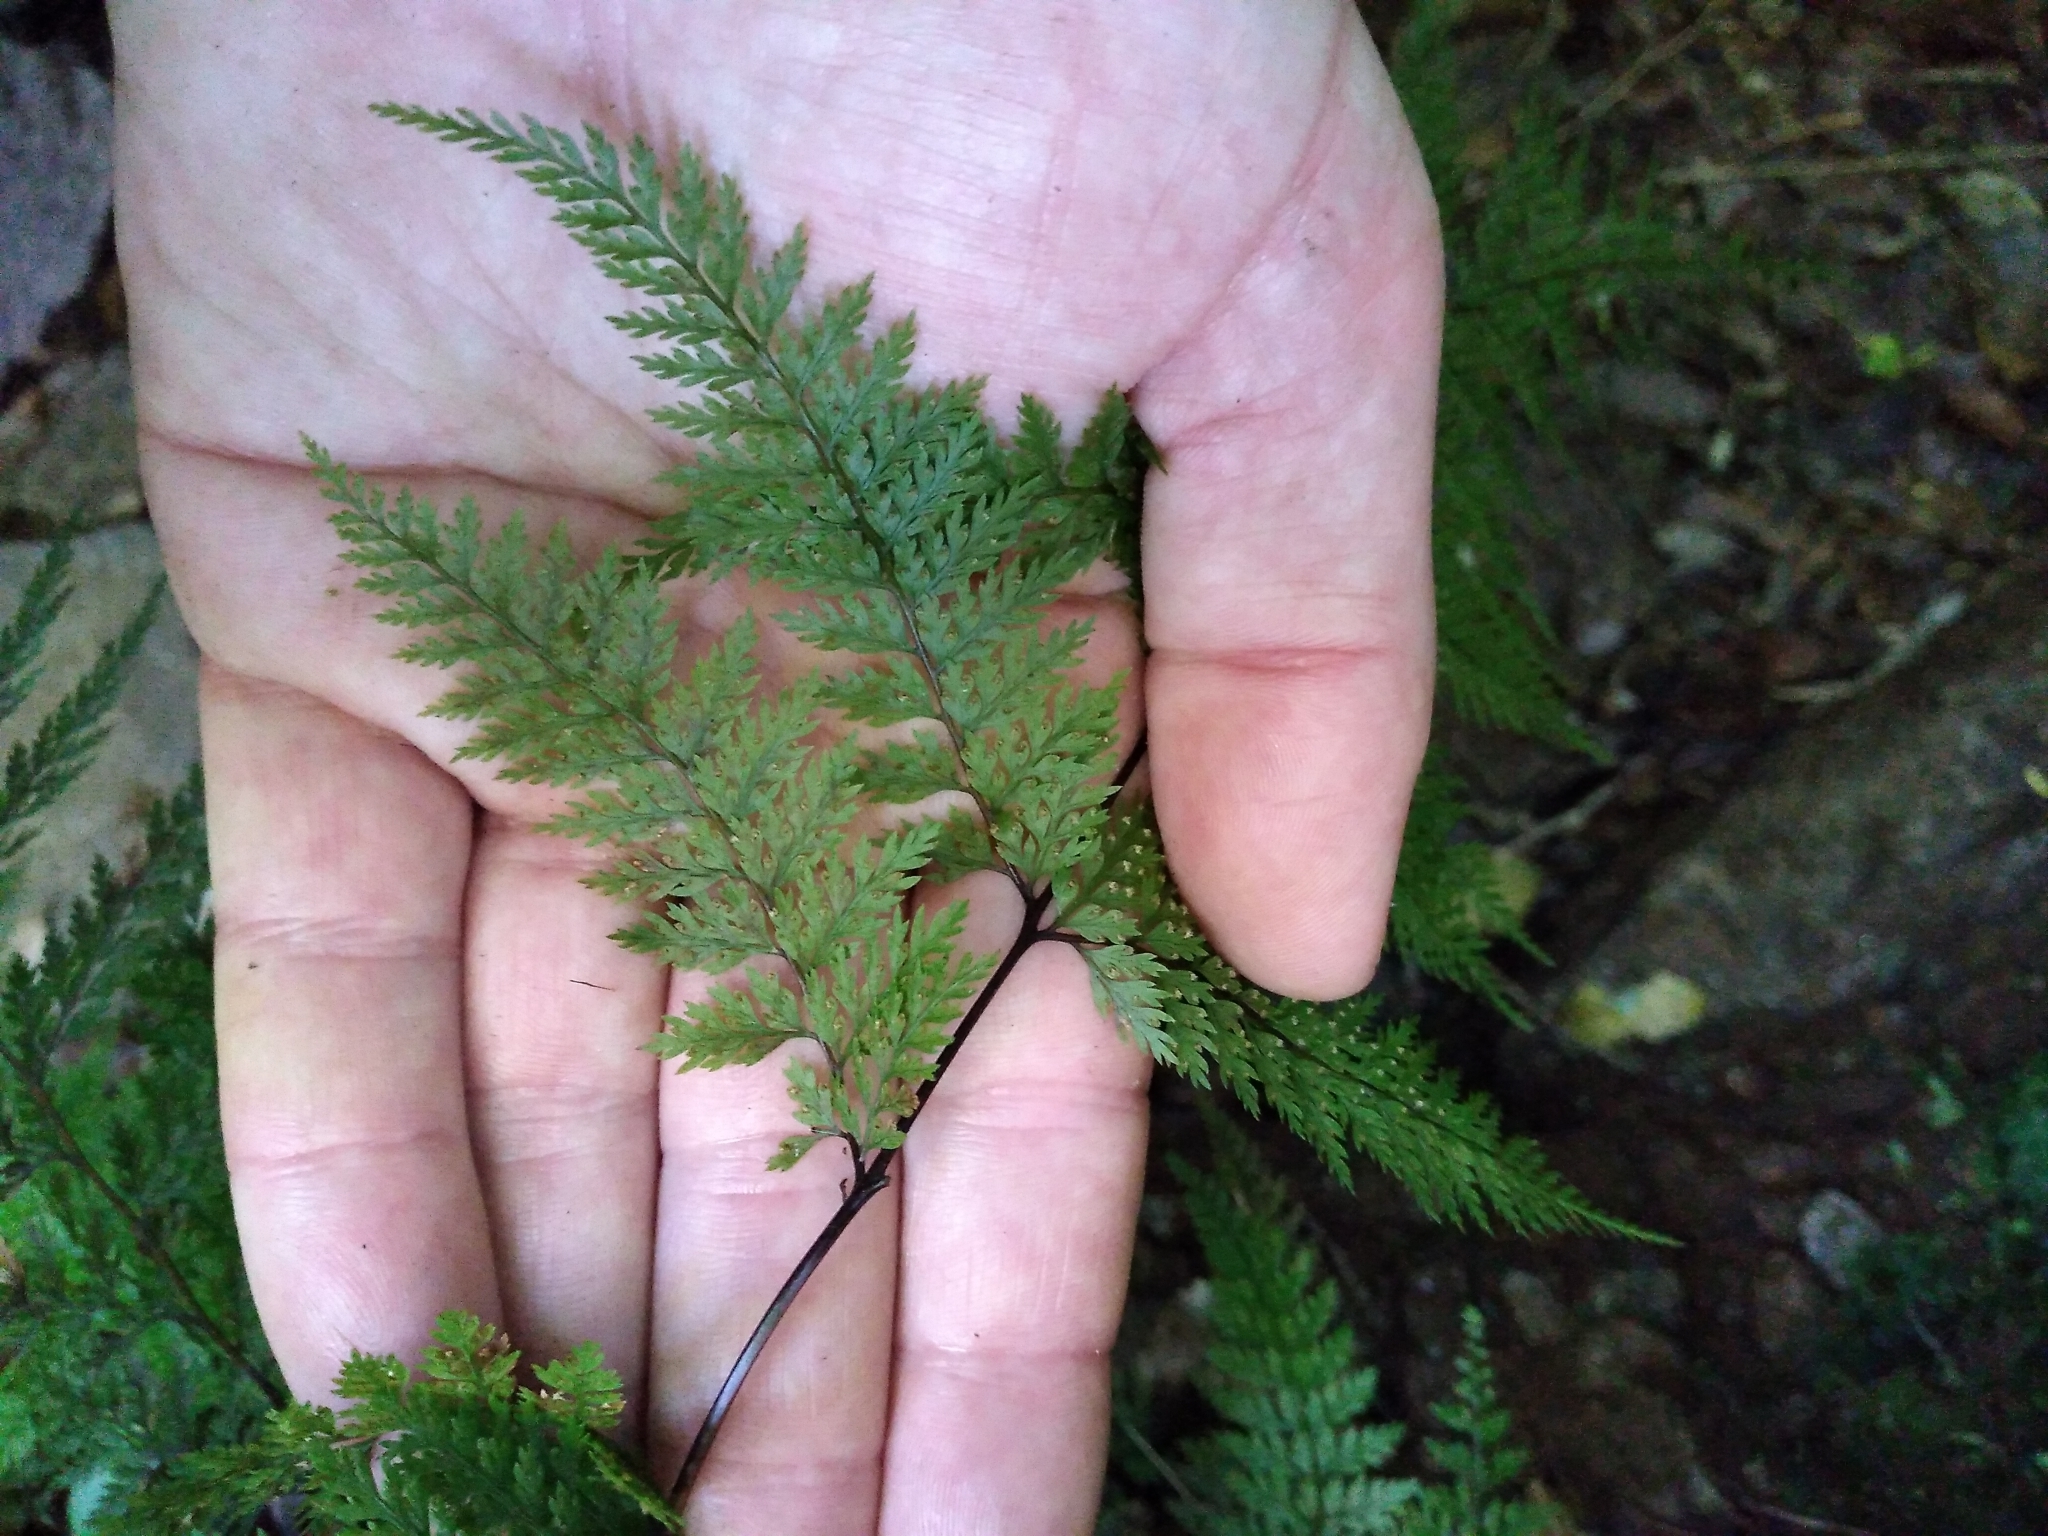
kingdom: Plantae
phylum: Tracheophyta
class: Polypodiopsida
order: Polypodiales
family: Dennstaedtiaceae
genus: Dennstaedtia
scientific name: Dennstaedtia novae-zelandiae
